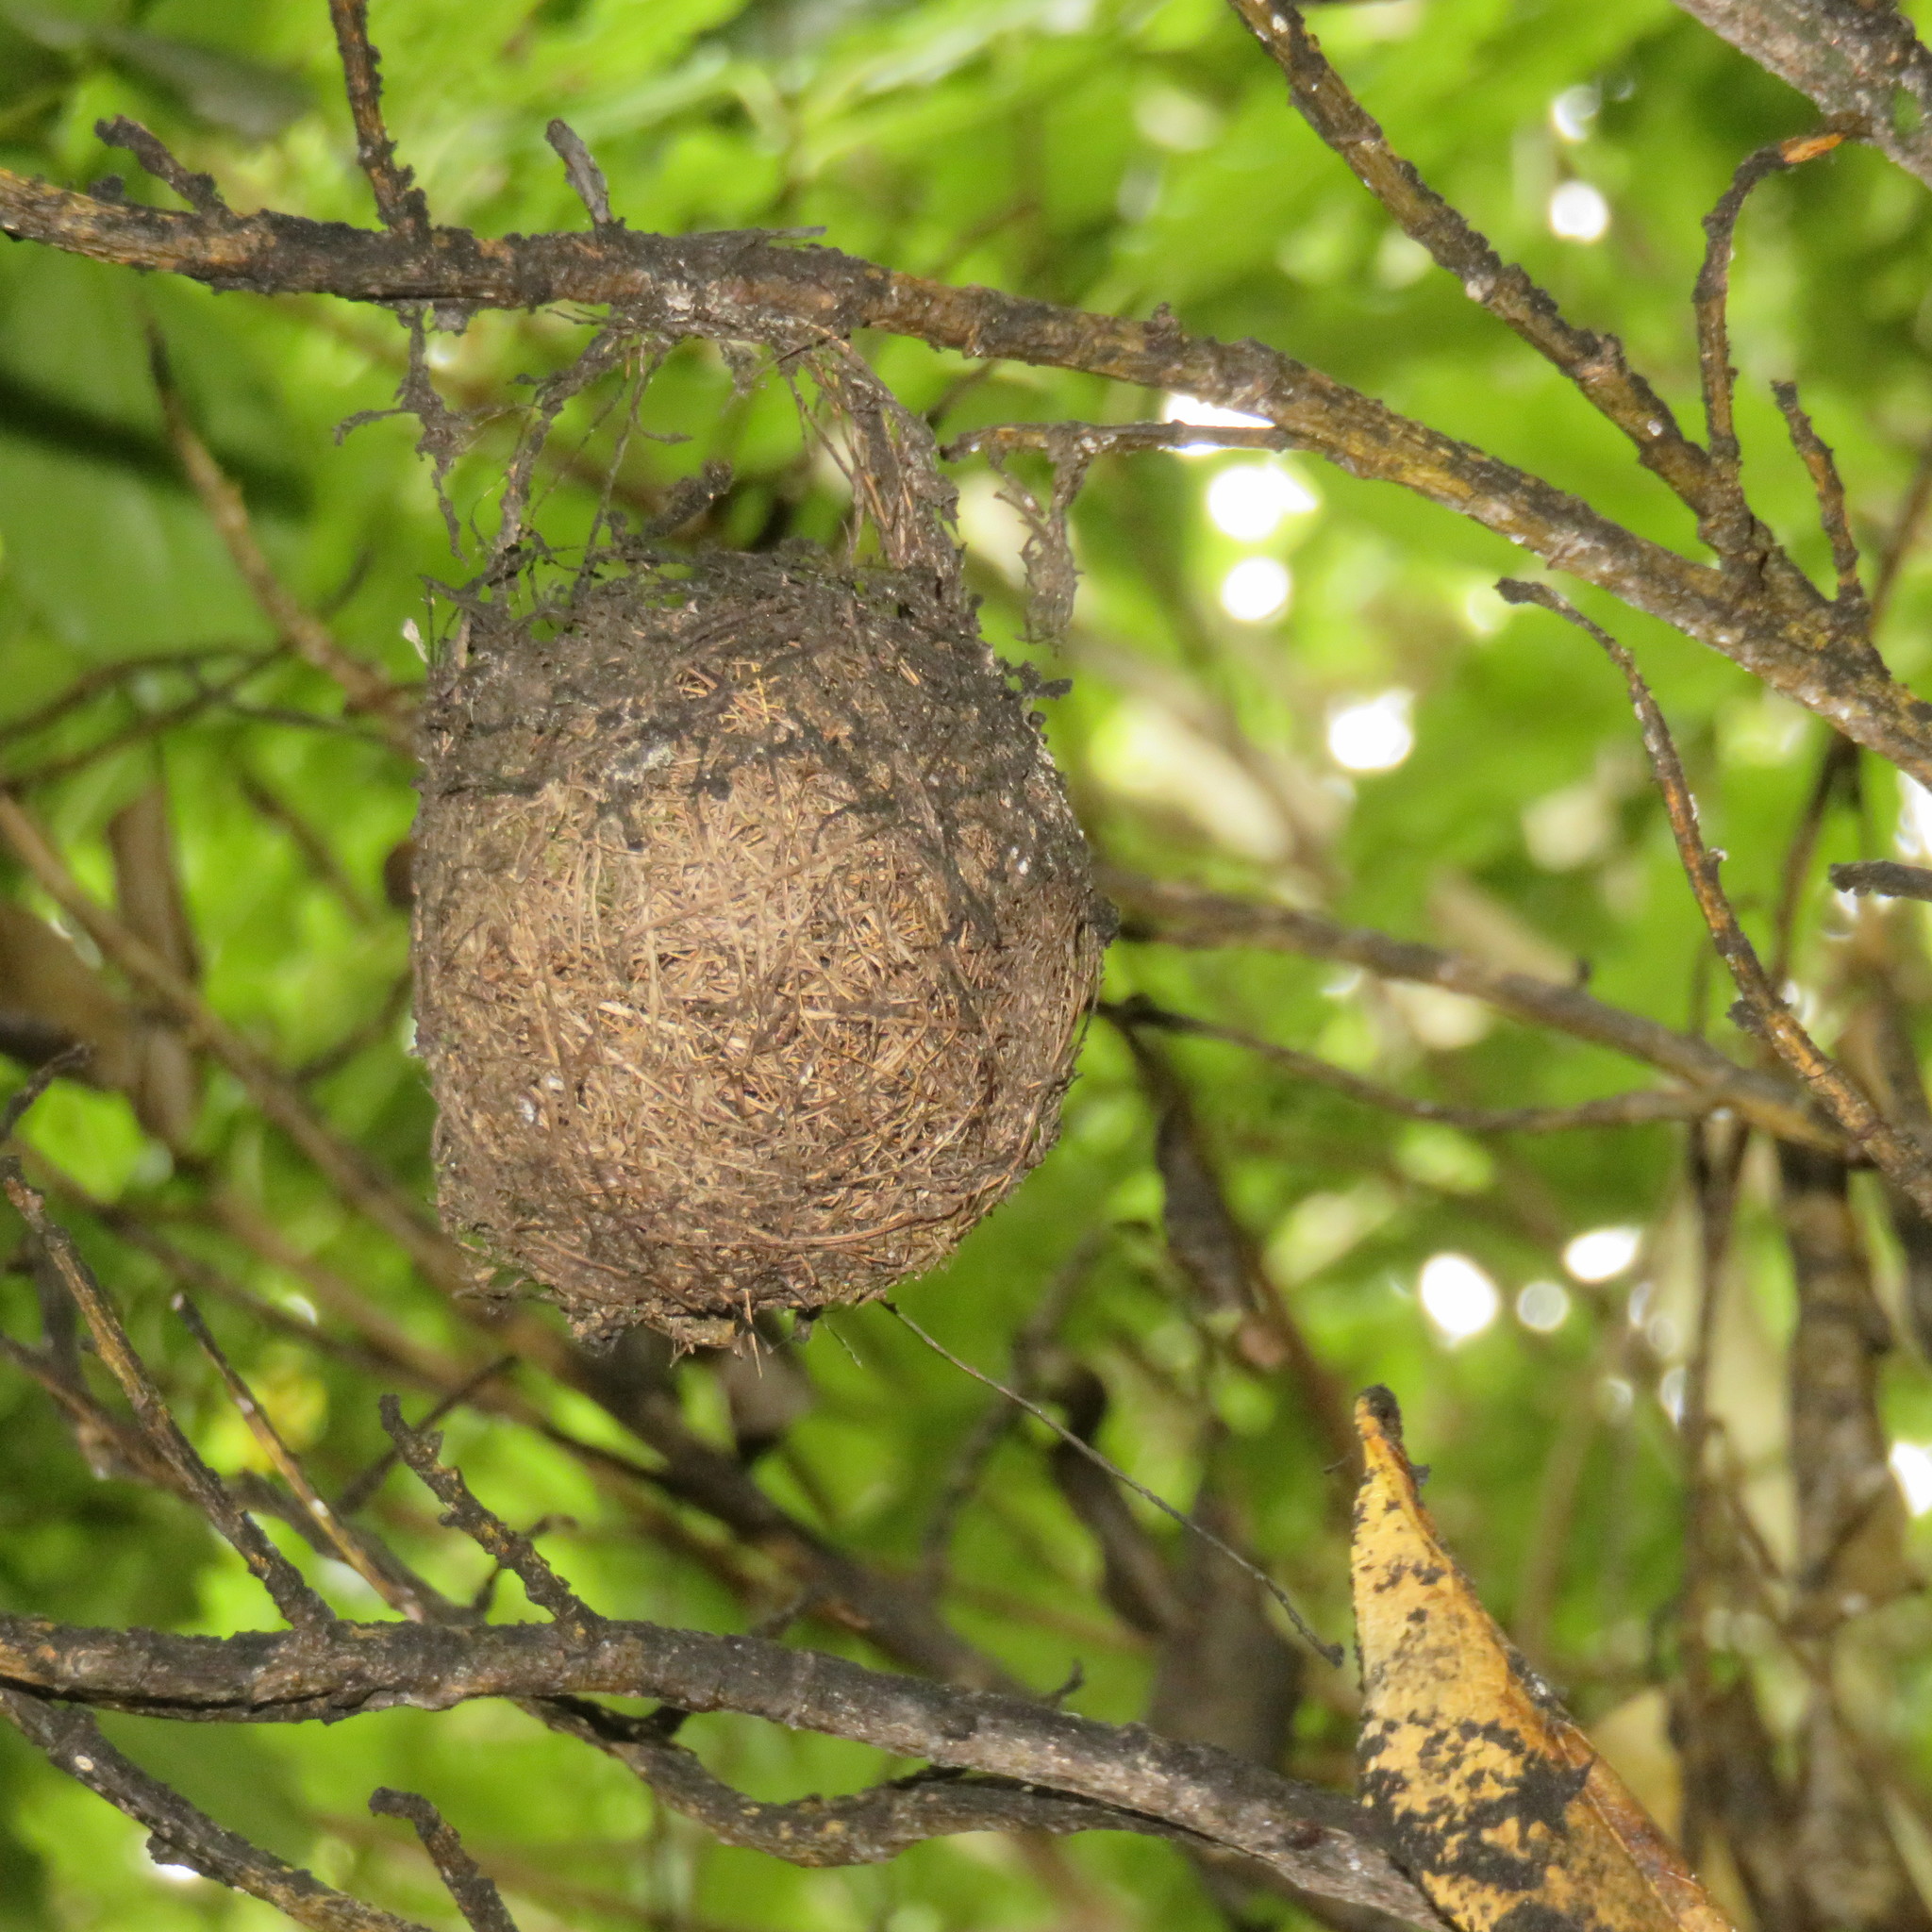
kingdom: Animalia
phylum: Chordata
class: Aves
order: Passeriformes
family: Zosteropidae
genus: Zosterops
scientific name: Zosterops lateralis
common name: Silvereye
